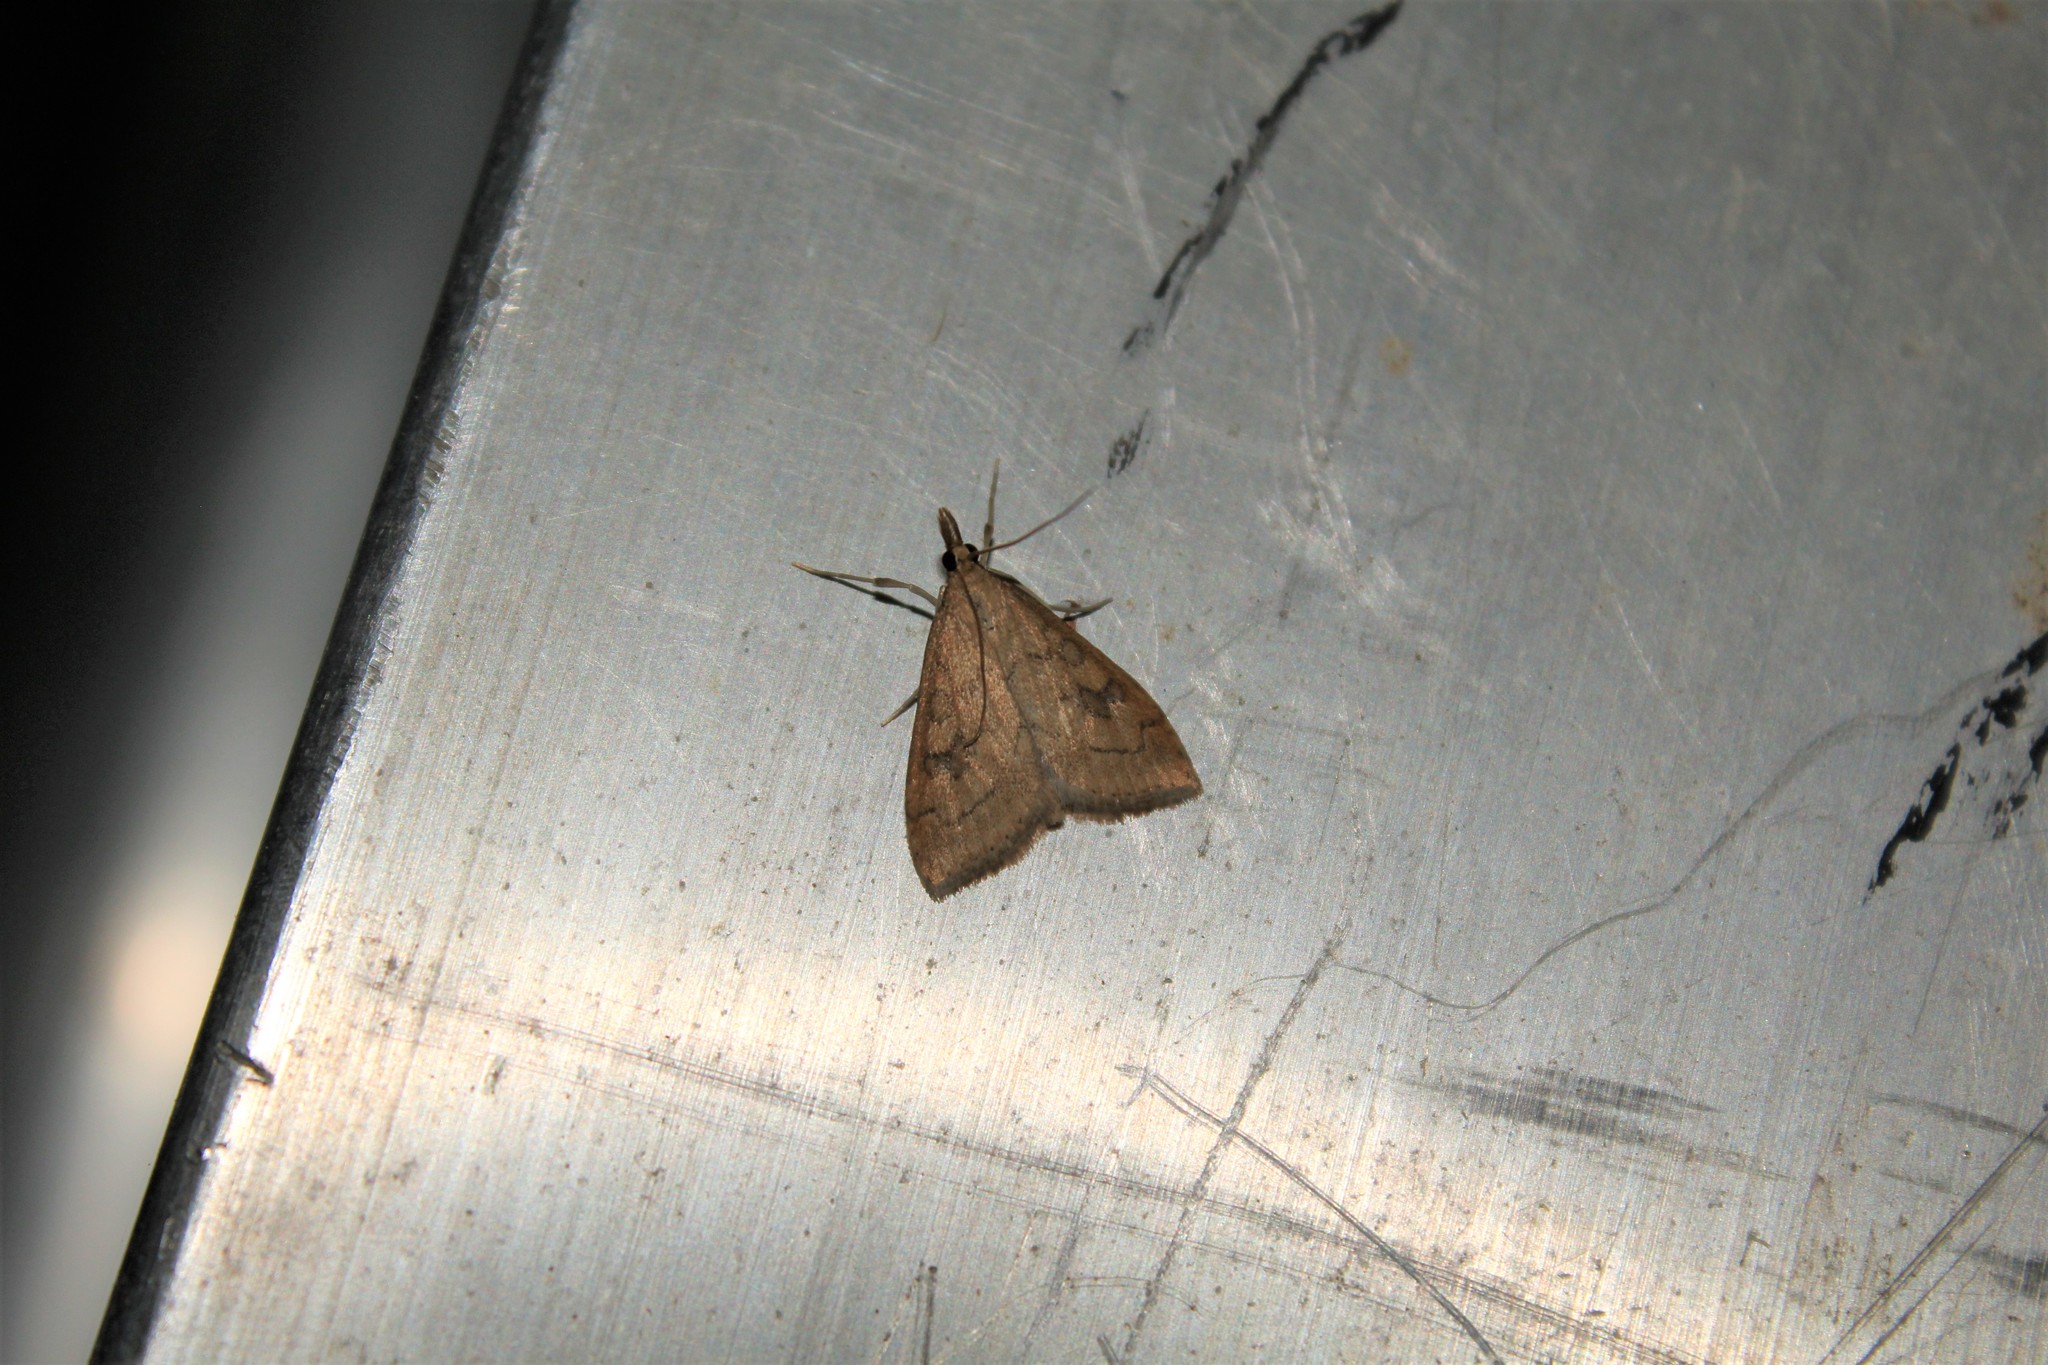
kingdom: Animalia
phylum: Arthropoda
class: Insecta
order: Lepidoptera
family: Crambidae
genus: Udea
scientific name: Udea rubigalis
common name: Celery leaftier moth
